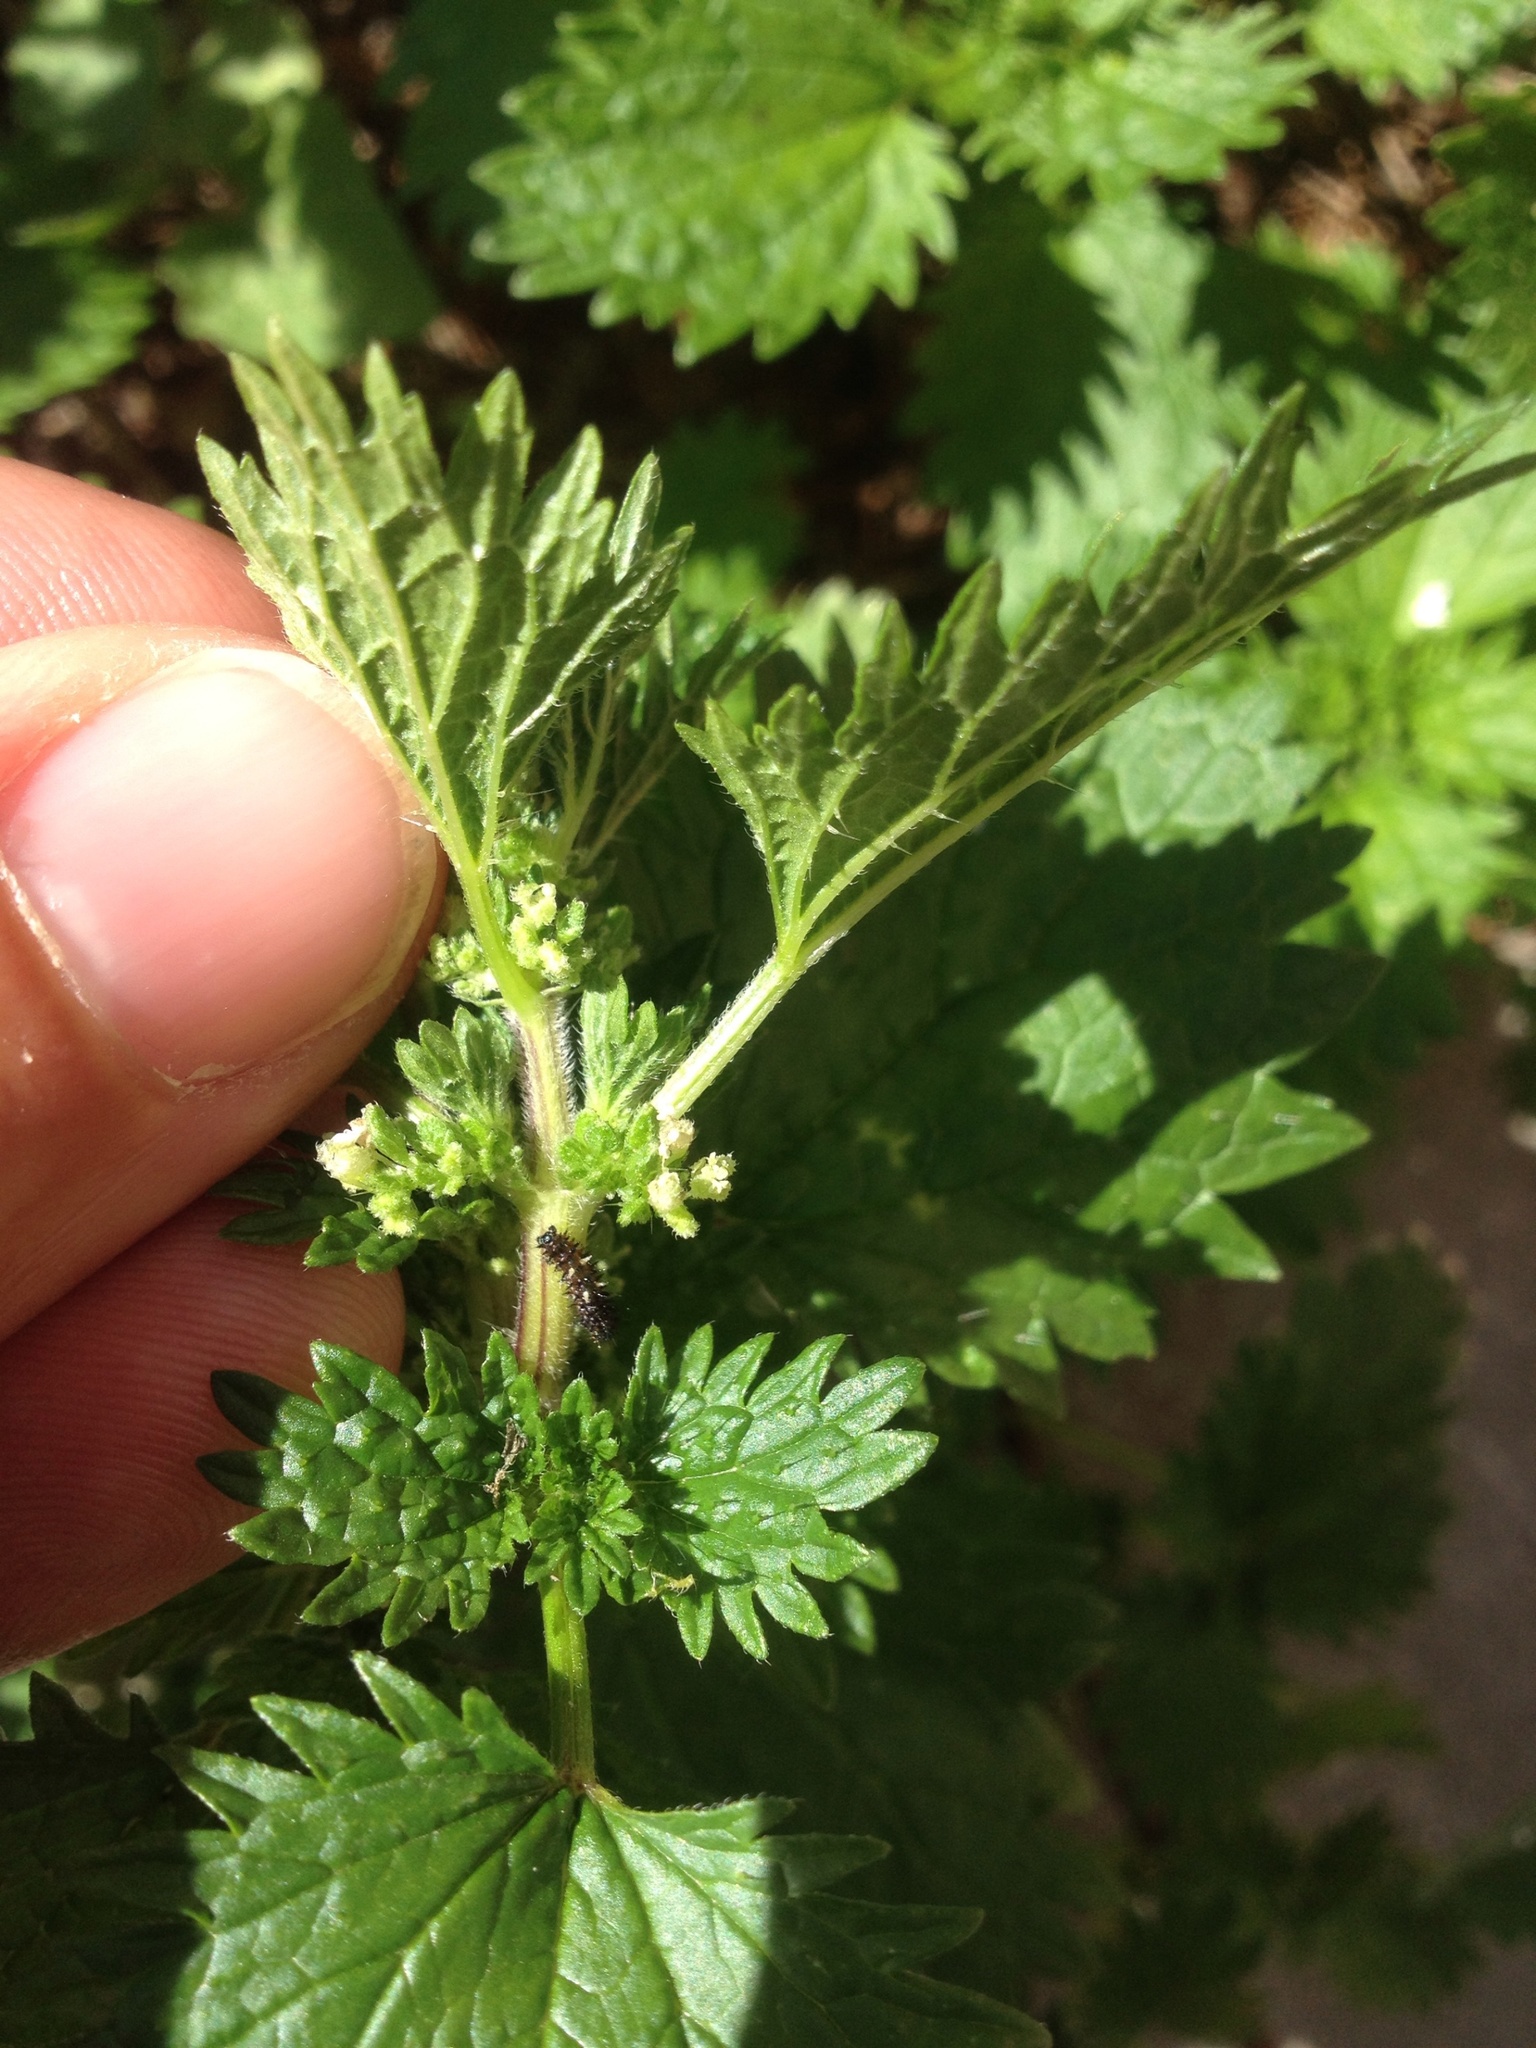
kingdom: Animalia
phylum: Arthropoda
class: Insecta
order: Lepidoptera
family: Nymphalidae
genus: Vanessa
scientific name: Vanessa itea
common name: Yellow admiral
